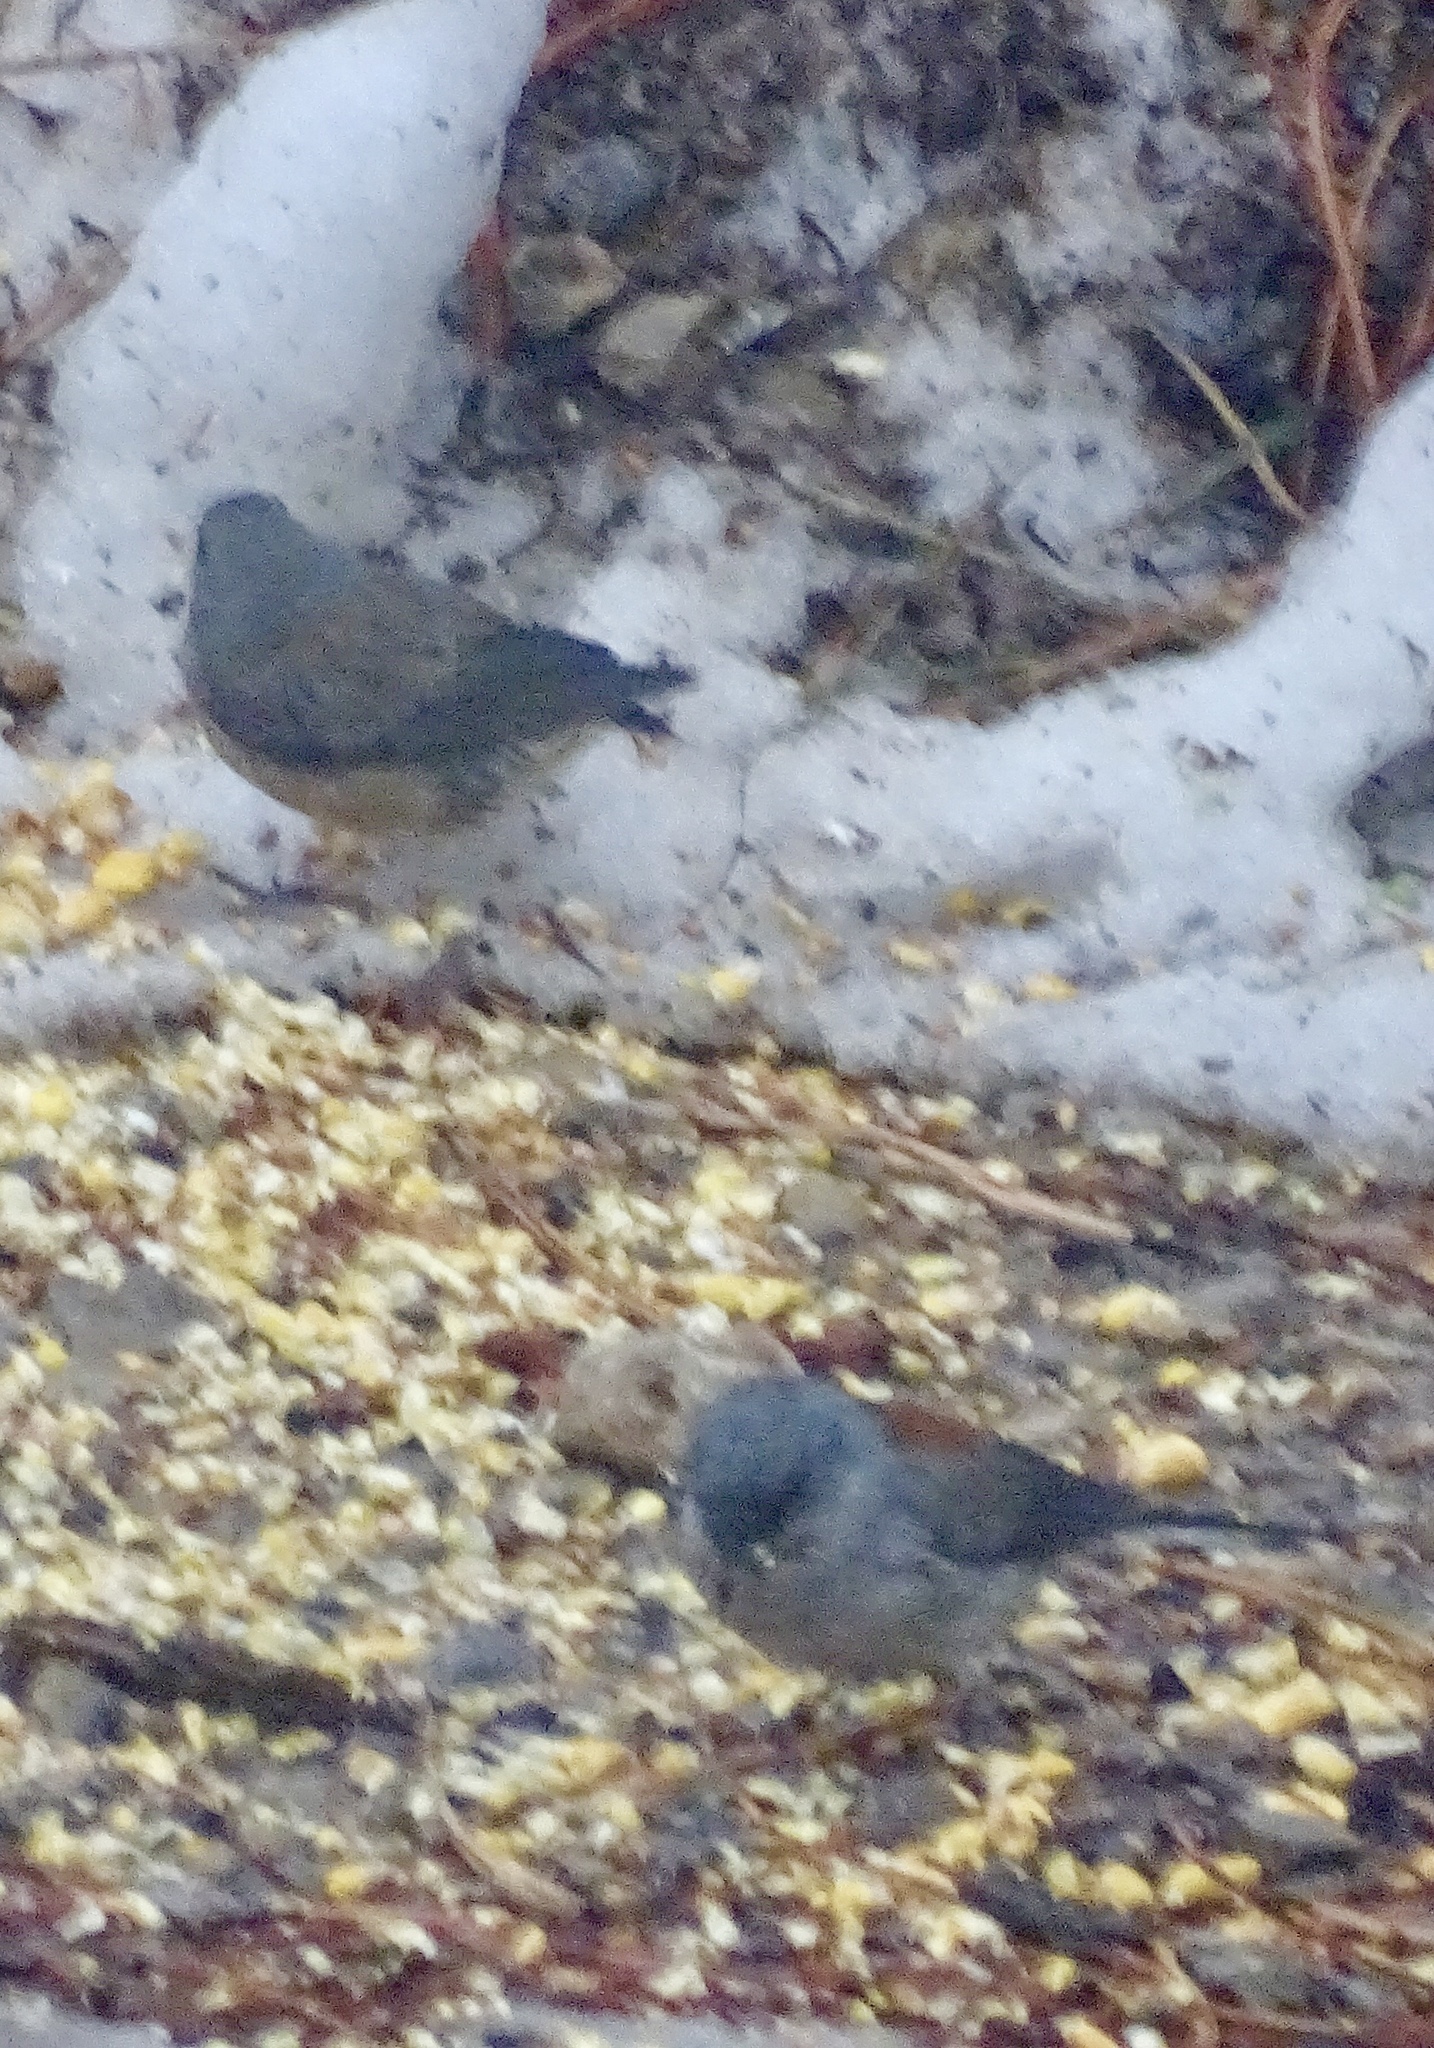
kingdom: Animalia
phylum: Chordata
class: Aves
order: Passeriformes
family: Passerellidae
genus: Junco
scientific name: Junco hyemalis
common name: Dark-eyed junco
